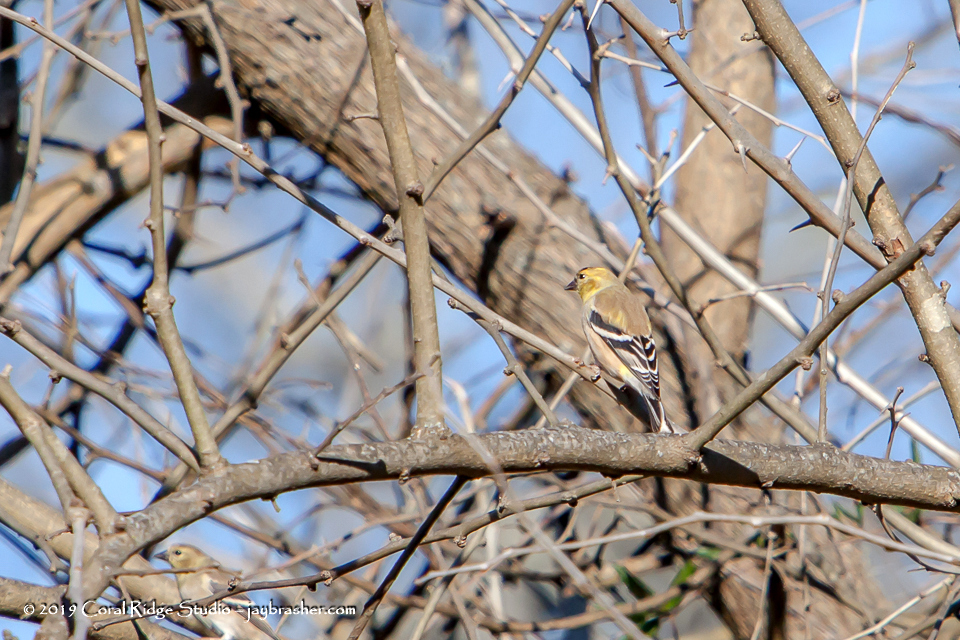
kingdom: Animalia
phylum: Chordata
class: Aves
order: Passeriformes
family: Fringillidae
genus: Spinus
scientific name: Spinus tristis
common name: American goldfinch
